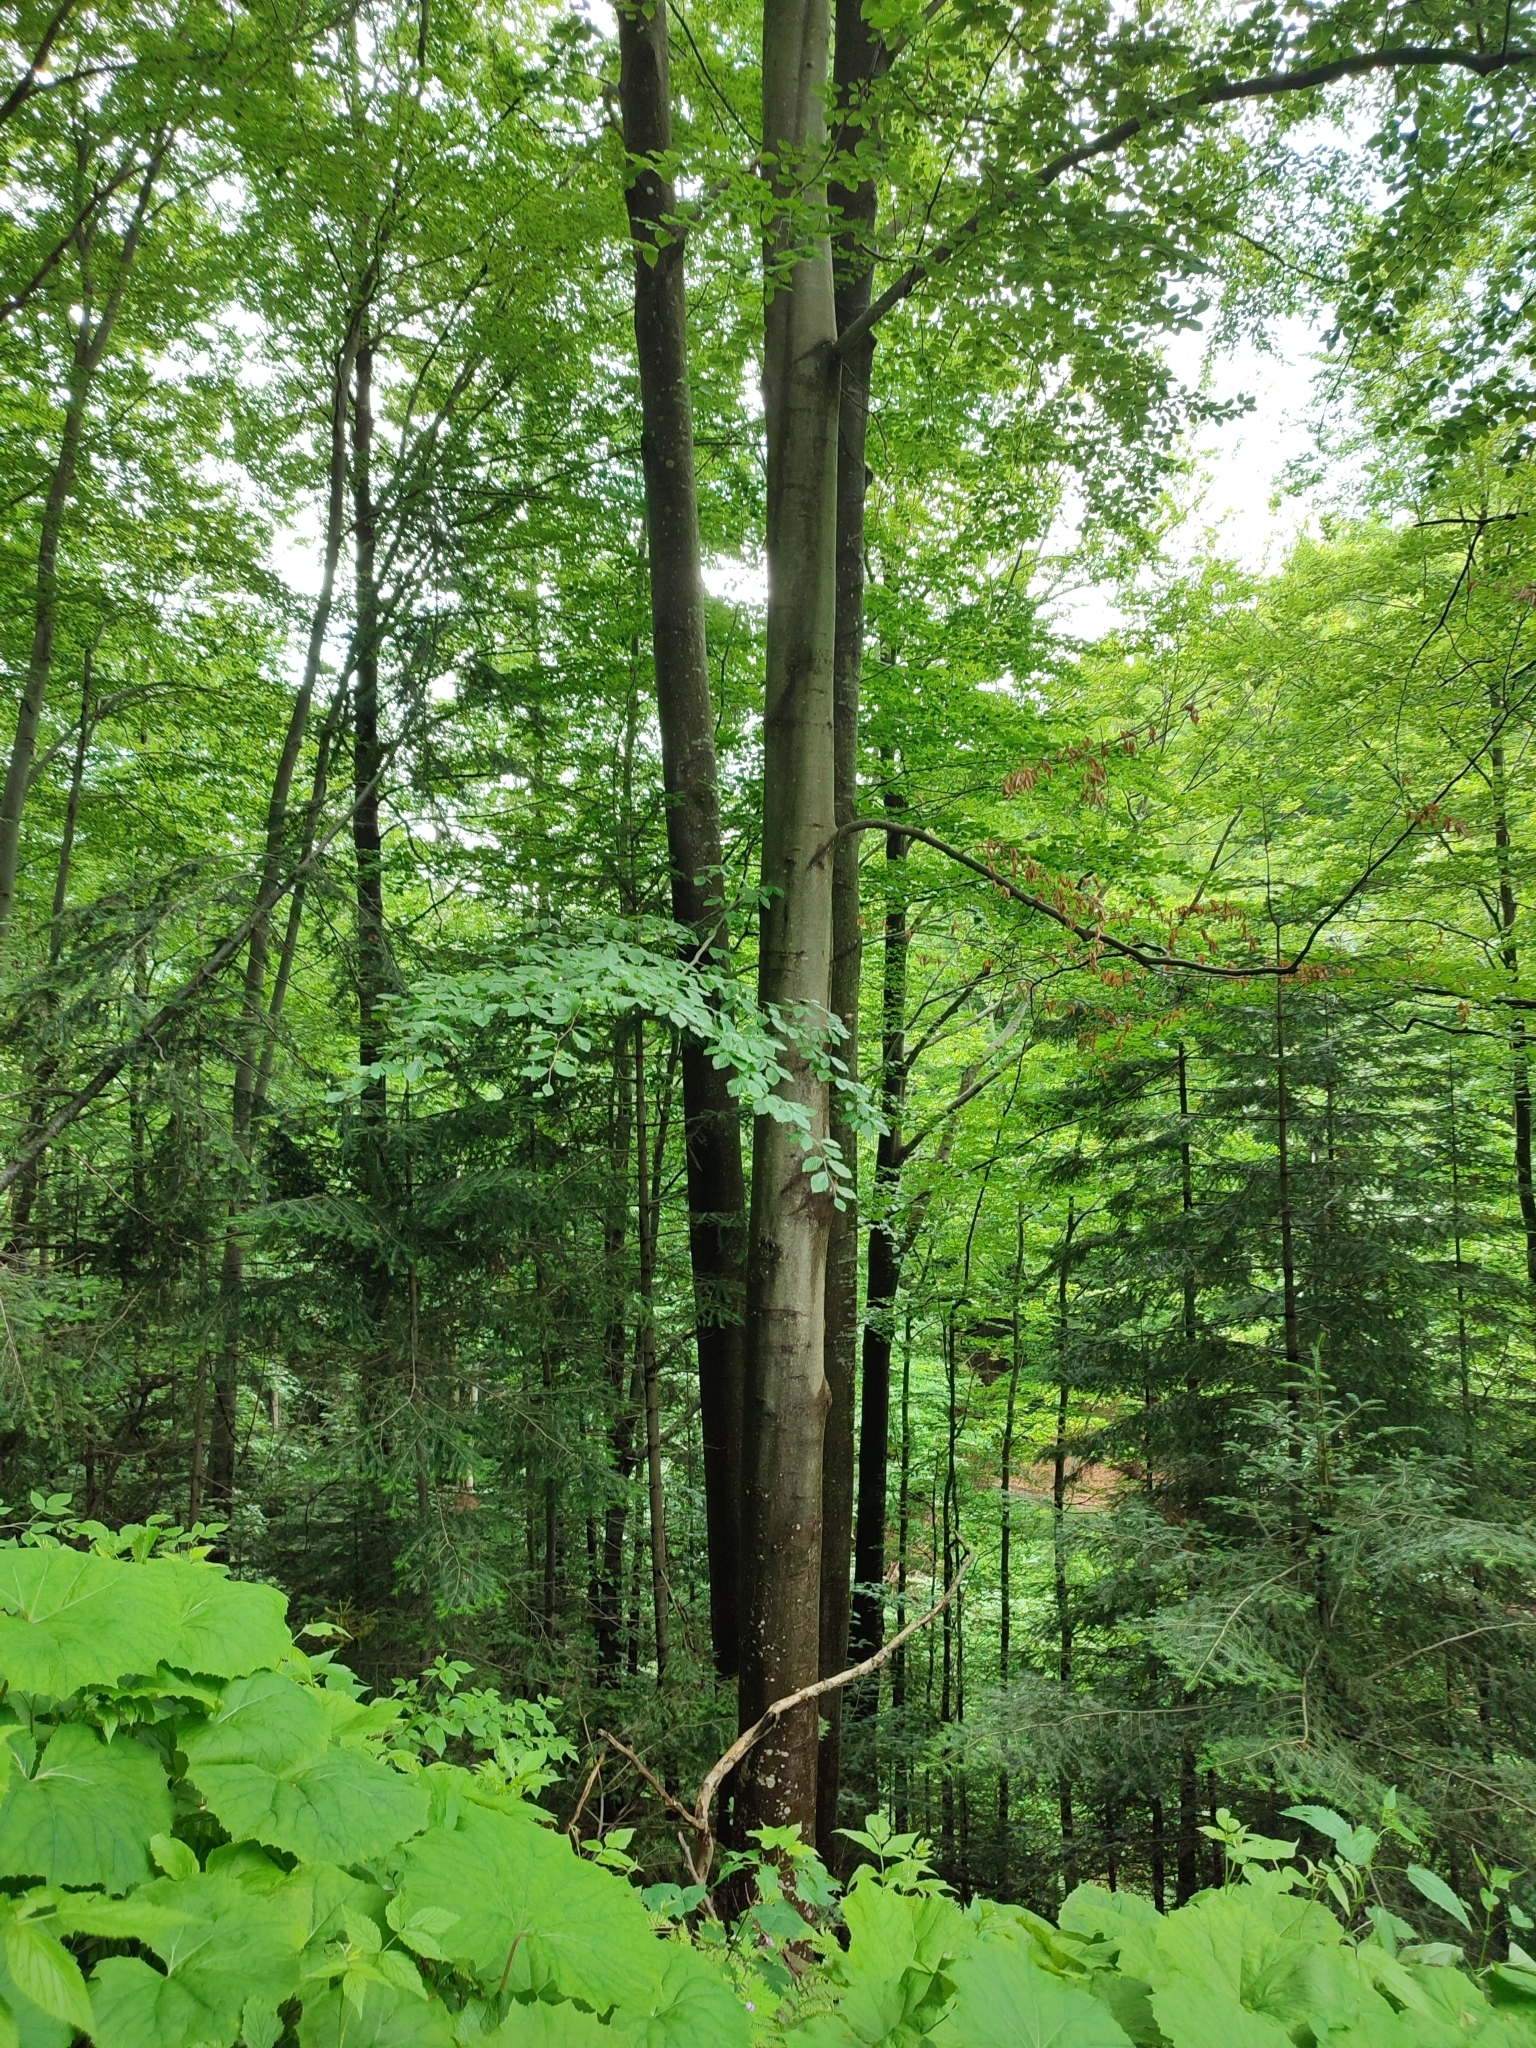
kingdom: Plantae
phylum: Tracheophyta
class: Magnoliopsida
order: Fagales
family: Fagaceae
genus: Fagus
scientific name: Fagus sylvatica
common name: Beech
